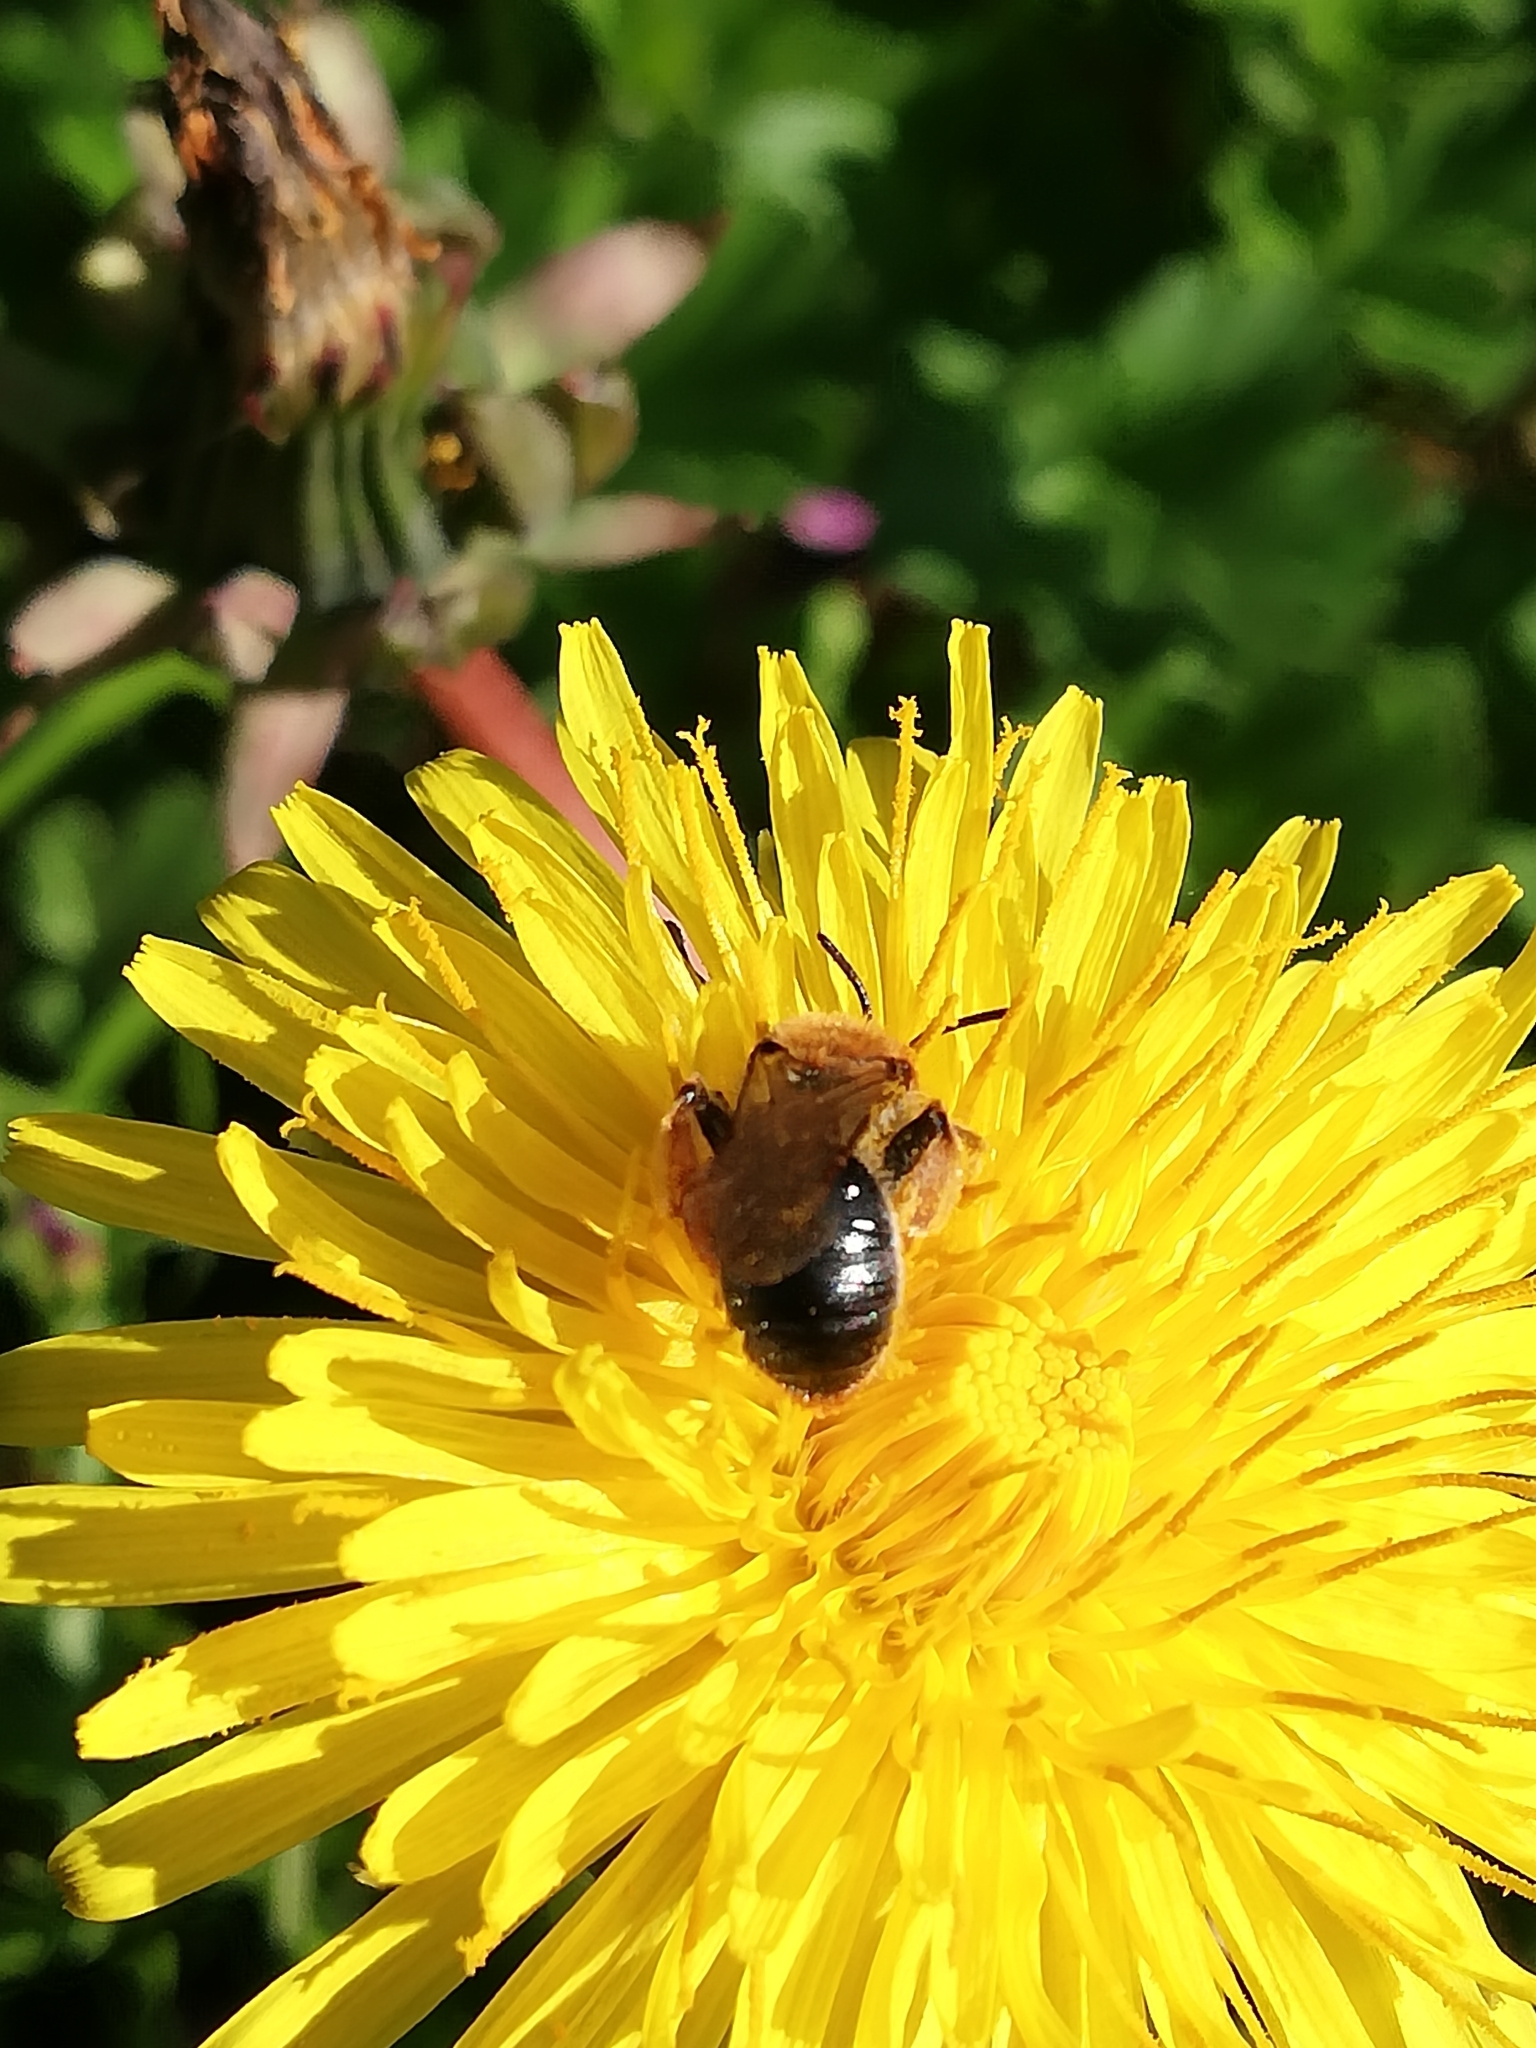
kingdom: Animalia
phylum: Arthropoda
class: Insecta
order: Hymenoptera
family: Andrenidae
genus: Andrena
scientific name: Andrena haemorrhoa
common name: Early mining bee
